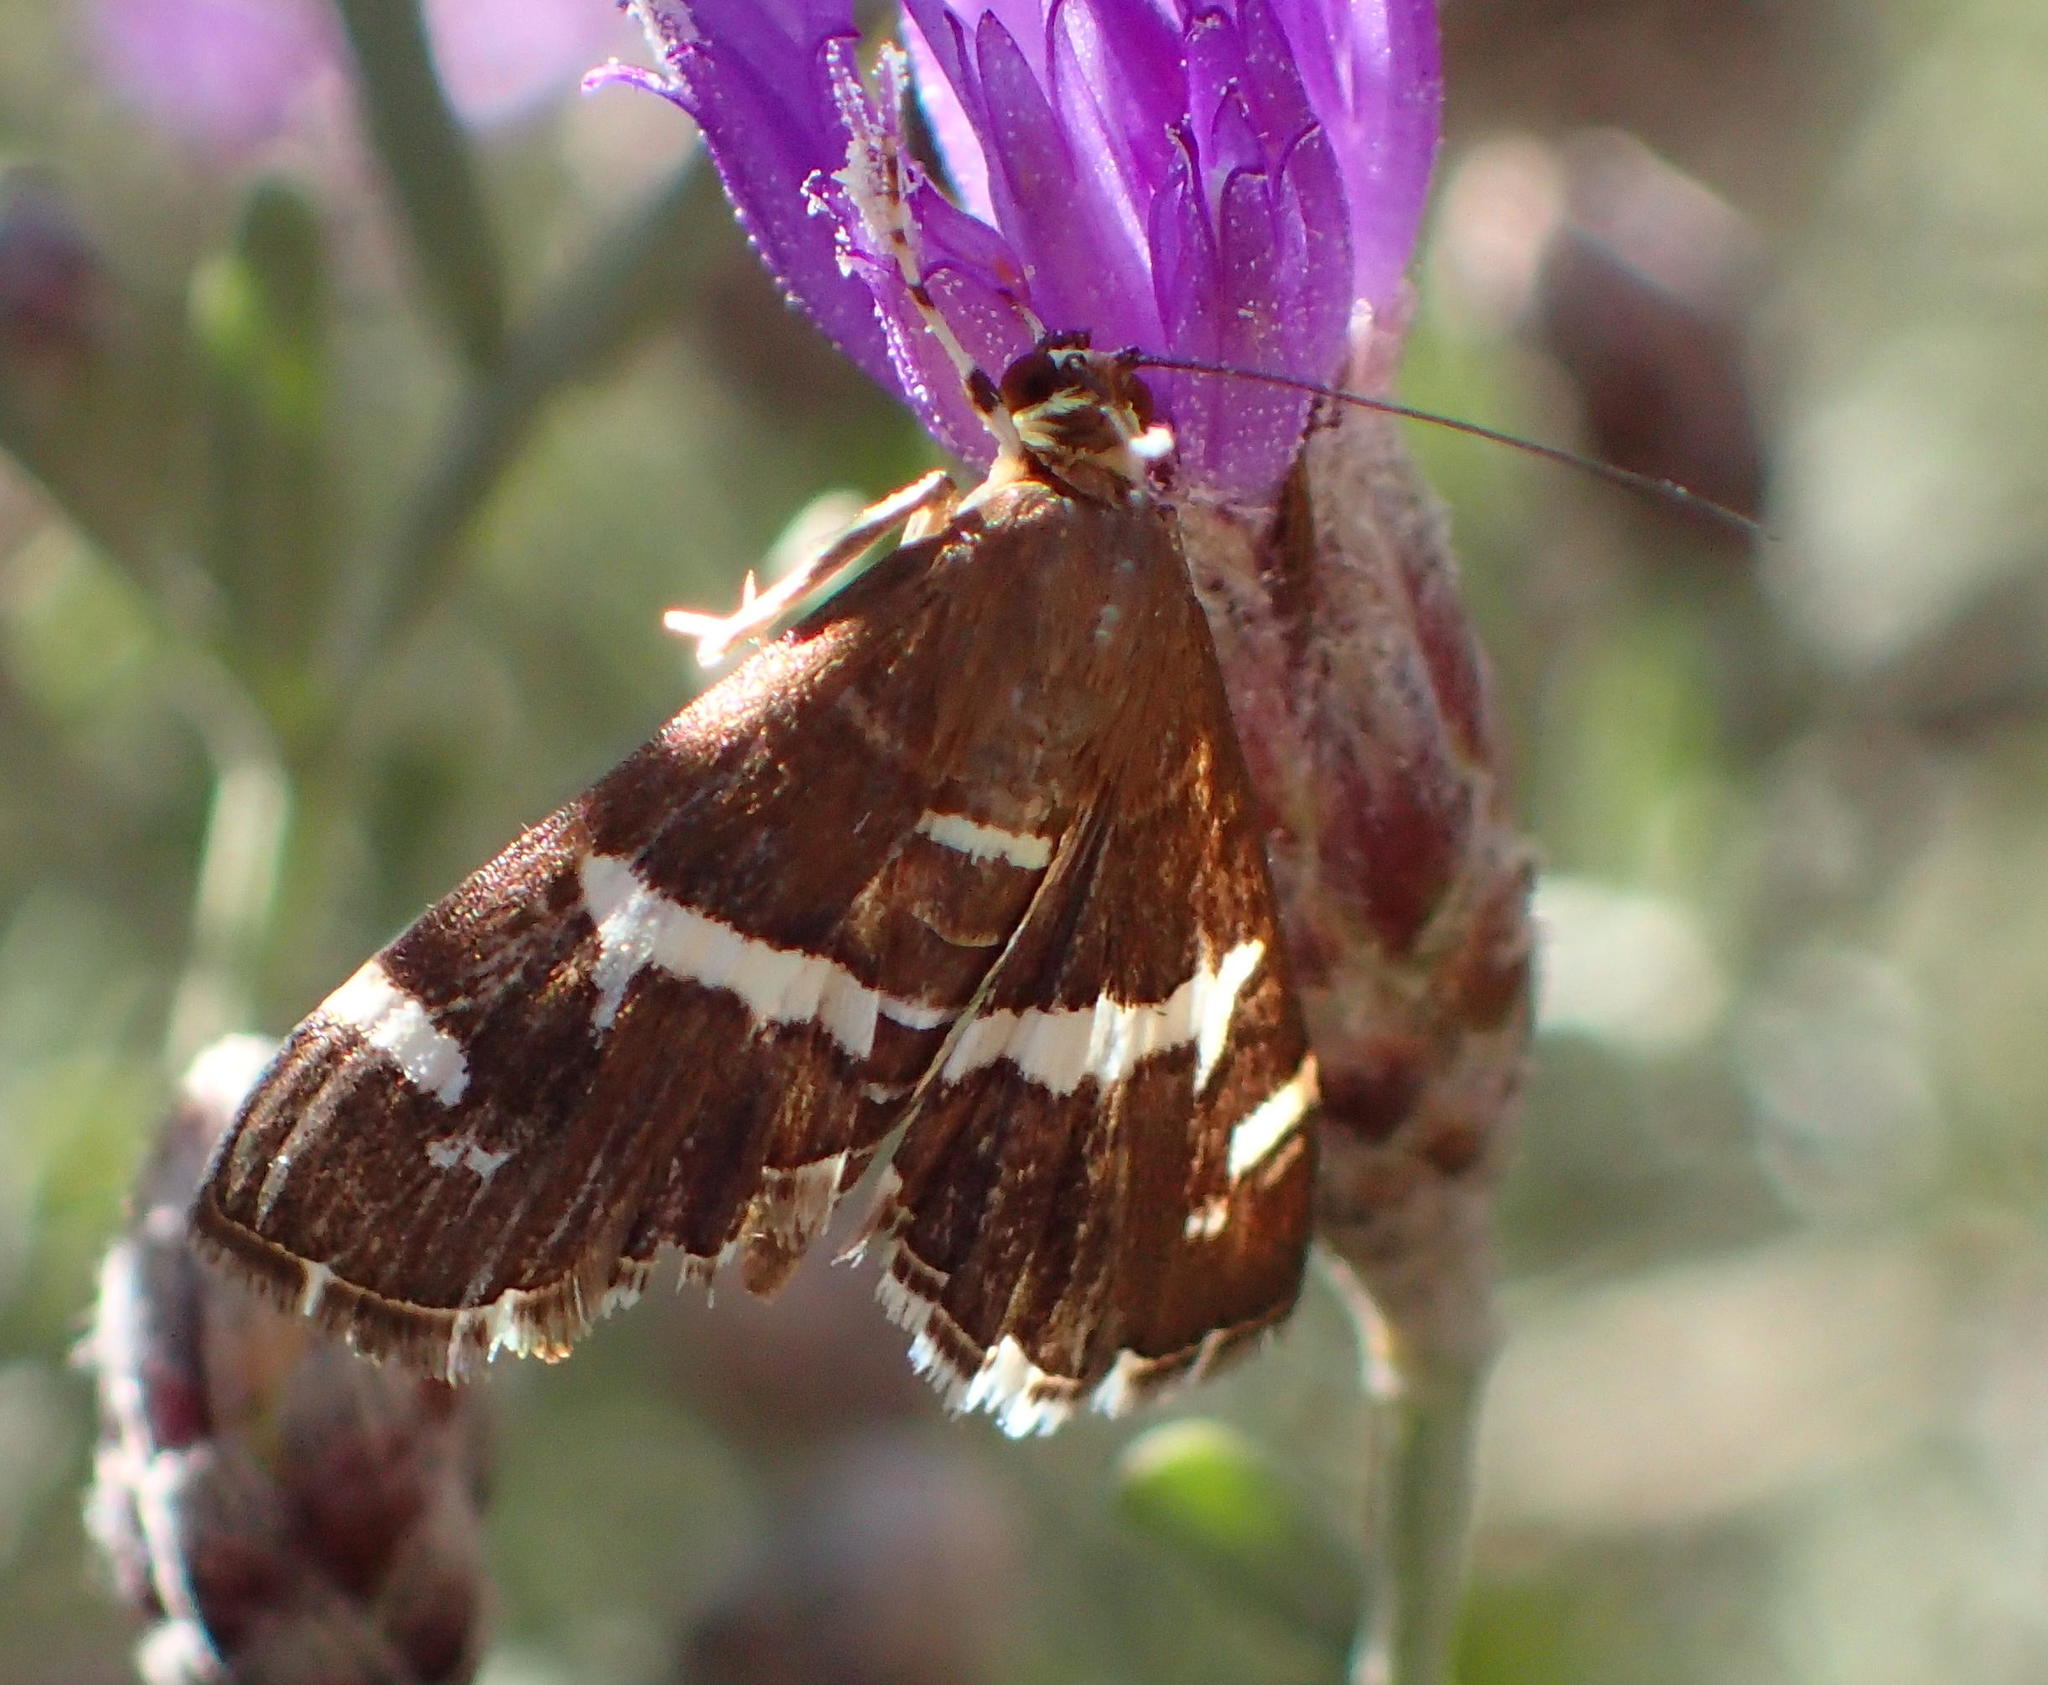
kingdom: Animalia
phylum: Arthropoda
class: Insecta
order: Lepidoptera
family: Crambidae
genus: Spoladea
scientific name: Spoladea recurvalis
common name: Beet webworm moth
